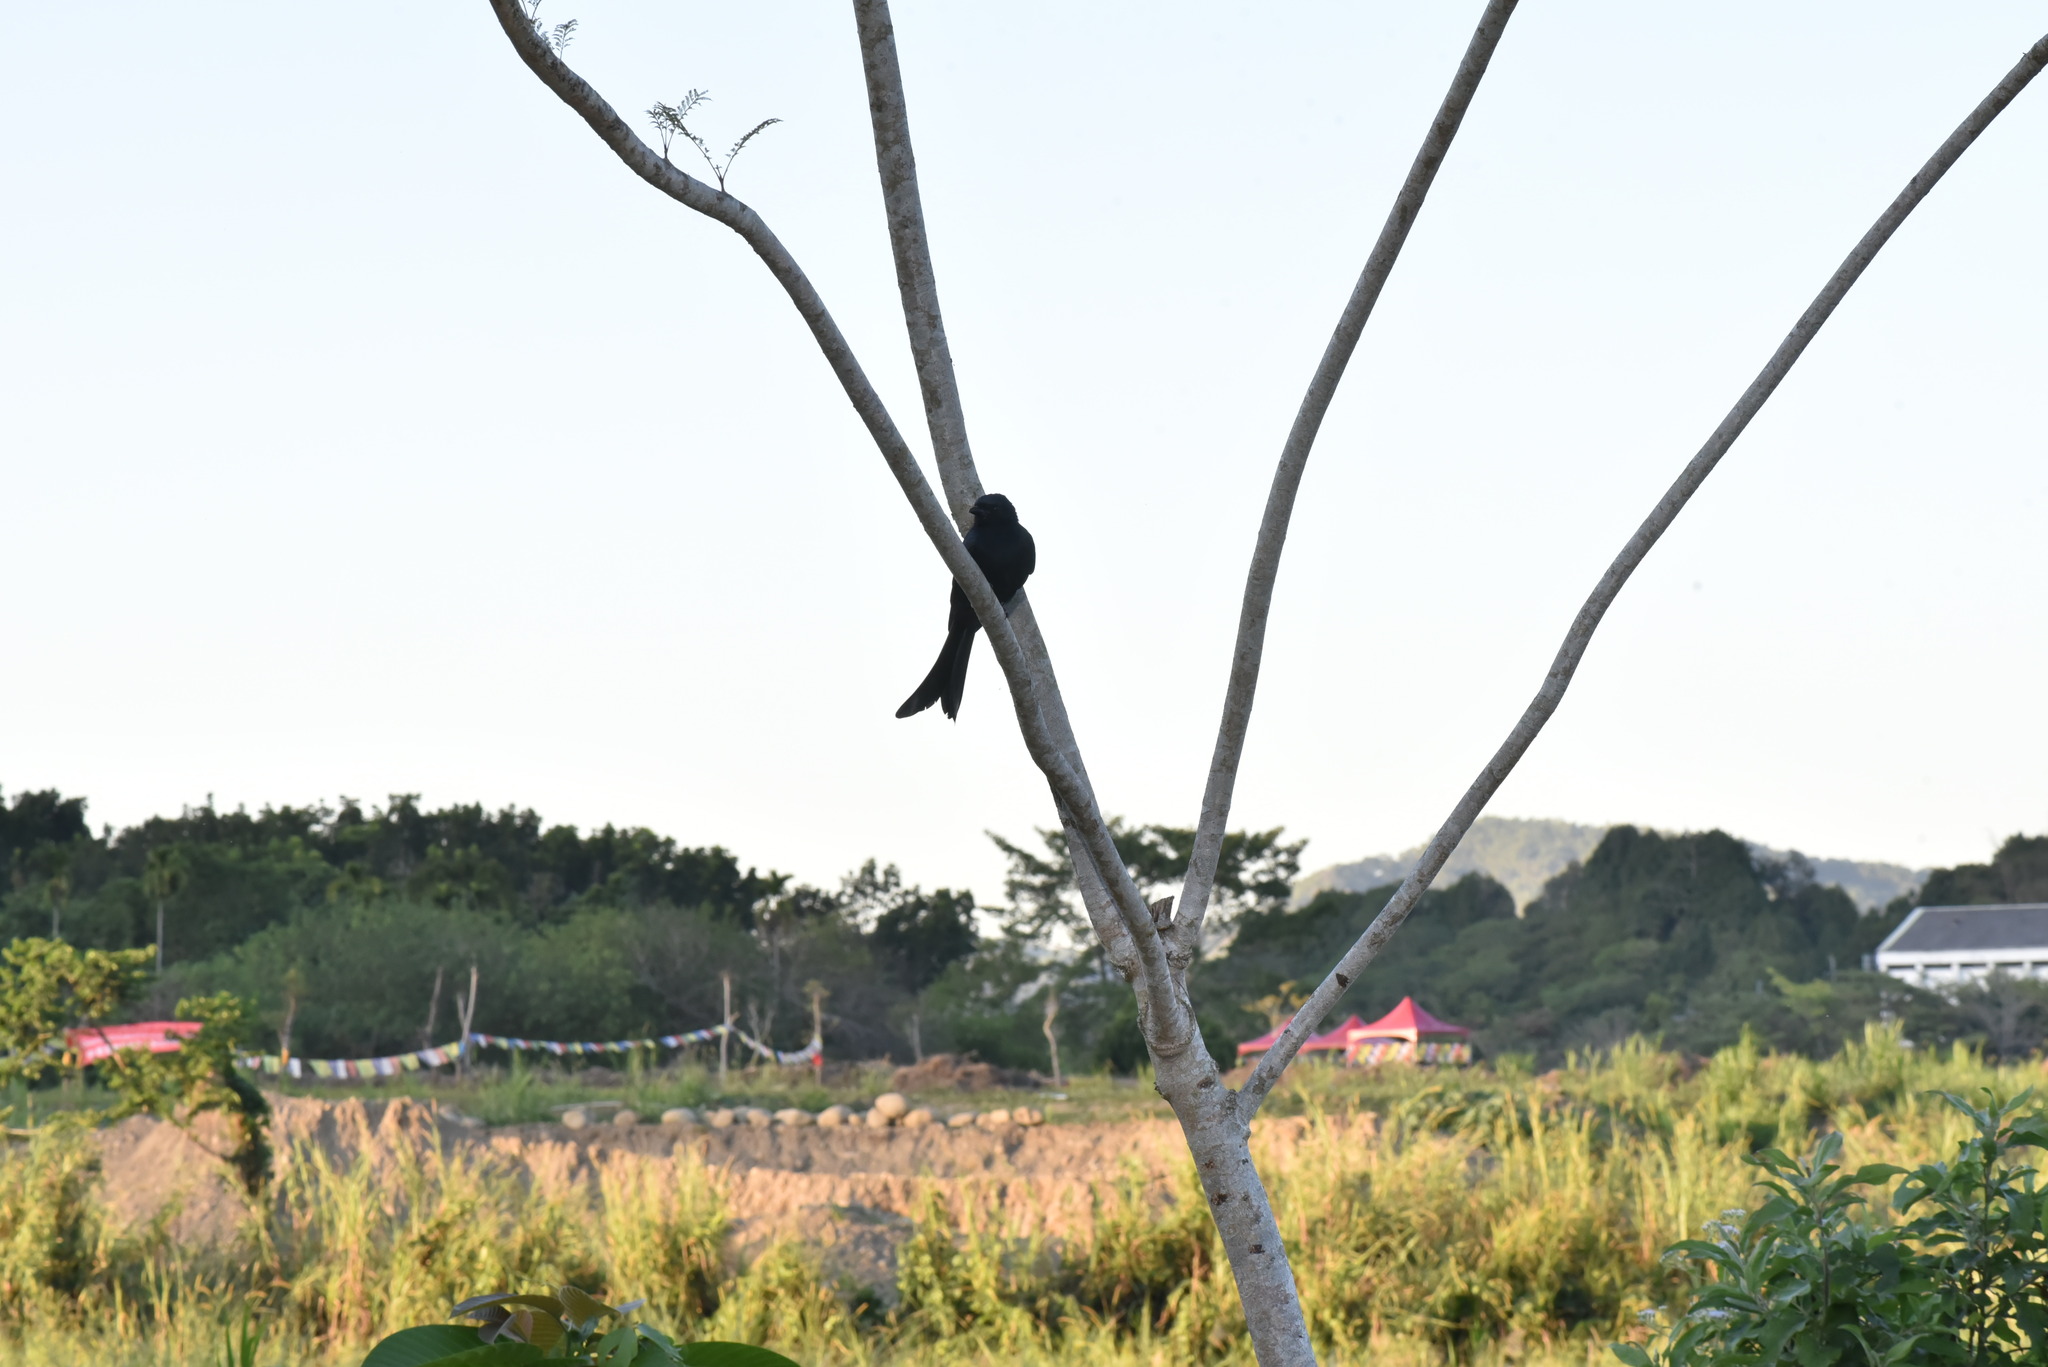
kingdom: Animalia
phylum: Chordata
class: Aves
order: Passeriformes
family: Dicruridae
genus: Dicrurus
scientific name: Dicrurus macrocercus
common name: Black drongo
